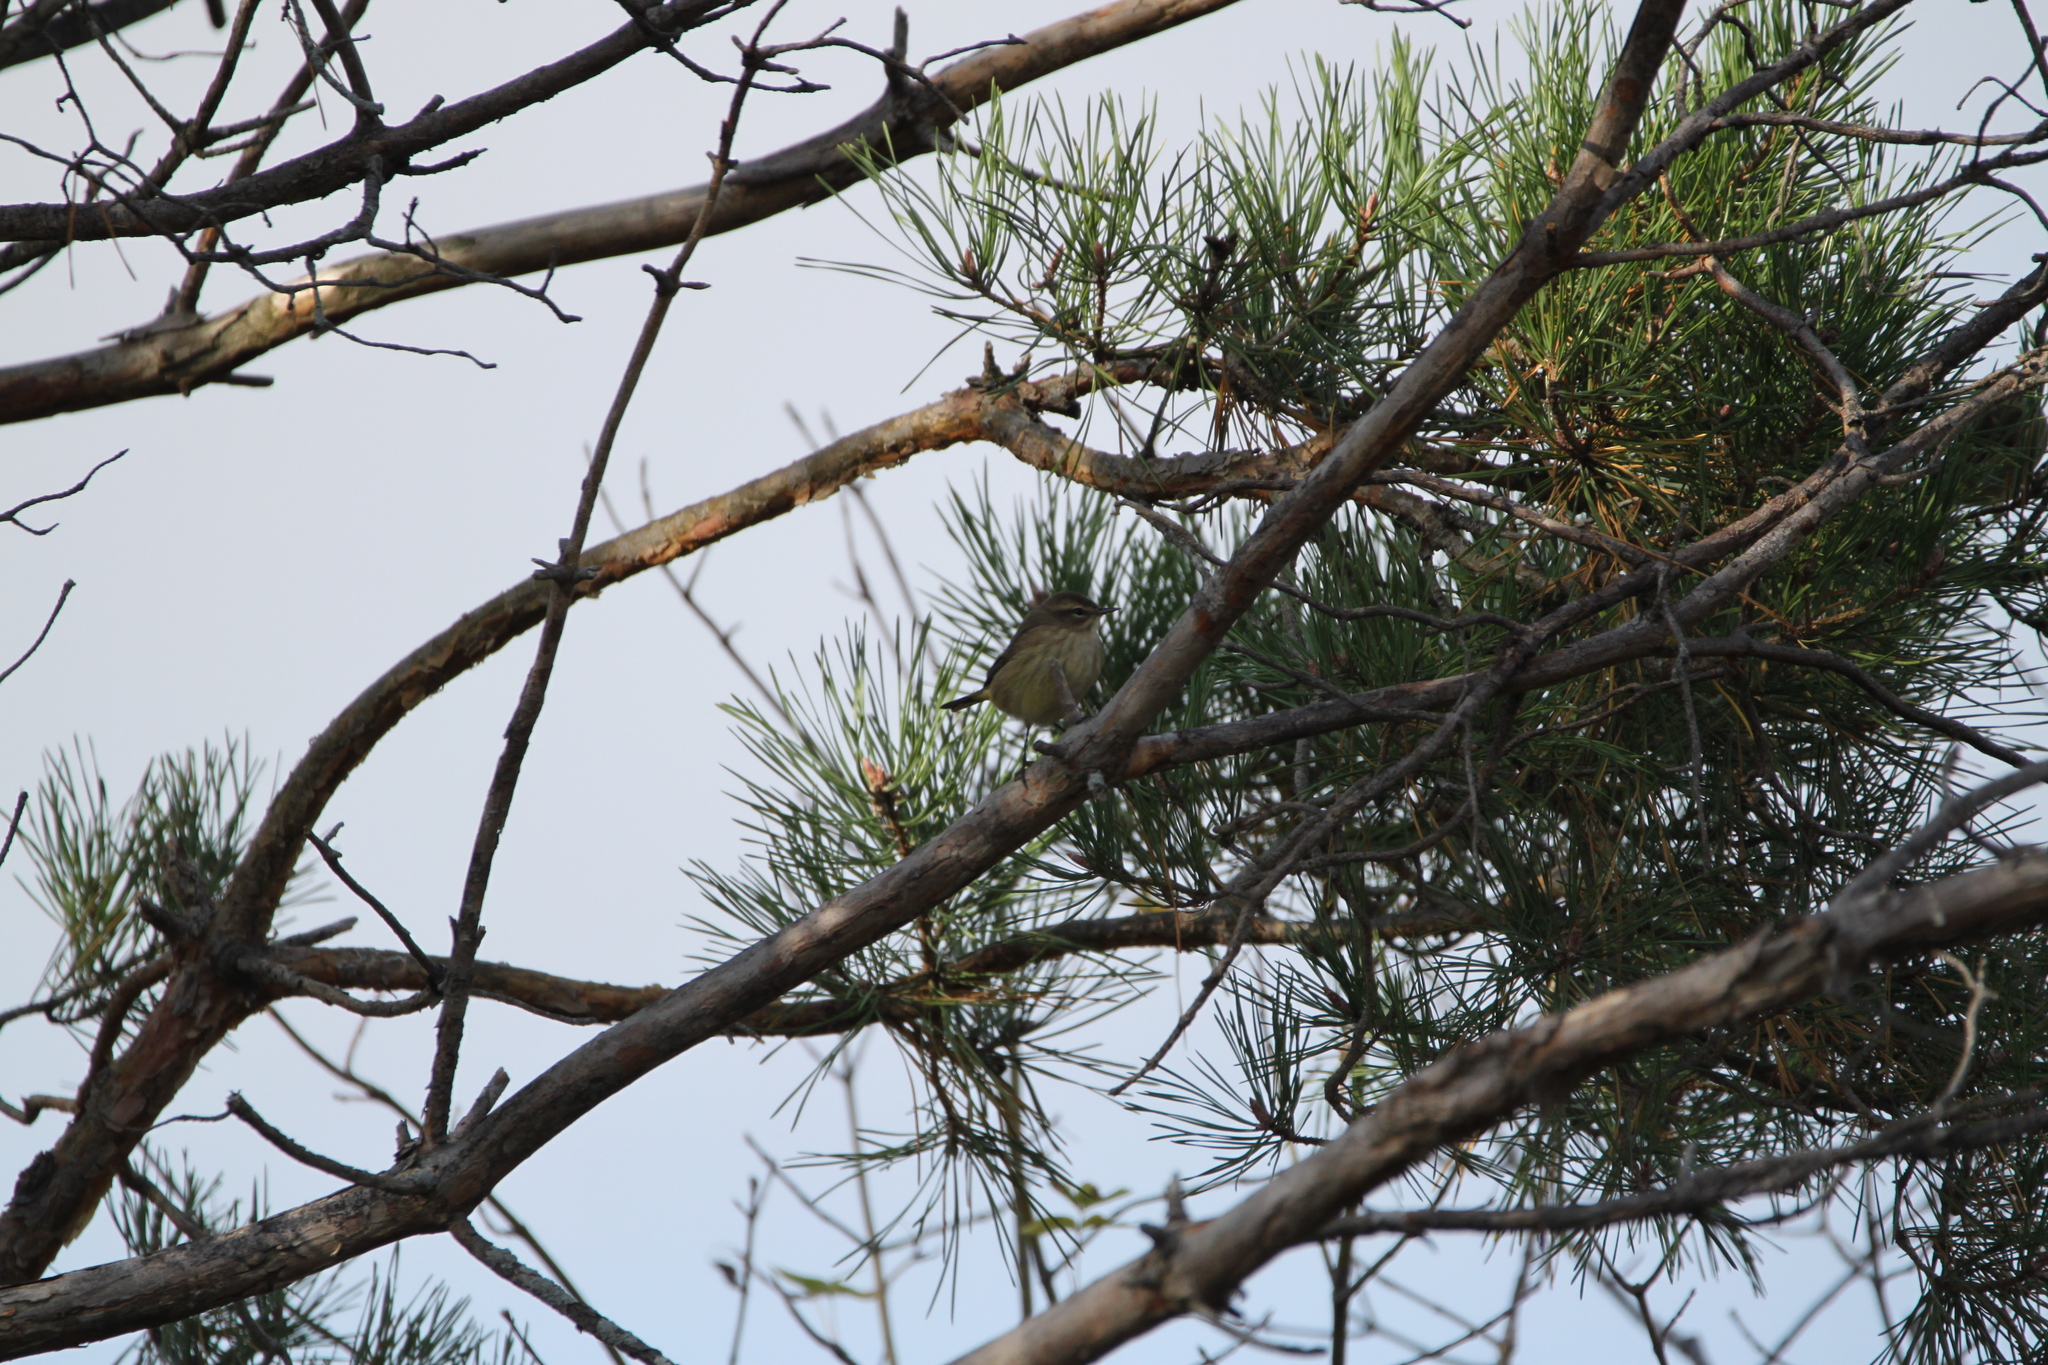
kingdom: Animalia
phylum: Chordata
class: Aves
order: Passeriformes
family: Parulidae
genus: Setophaga
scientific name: Setophaga palmarum
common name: Palm warbler
